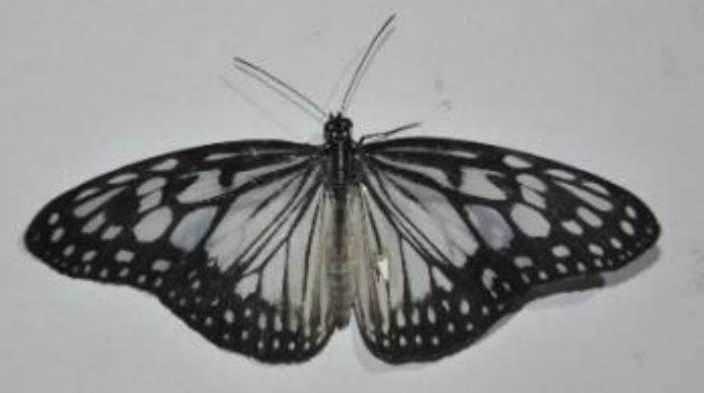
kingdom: Animalia
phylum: Arthropoda
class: Insecta
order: Lepidoptera
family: Nymphalidae
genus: Ideopsis
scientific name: Ideopsis juventa
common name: Grey glassy tiger
